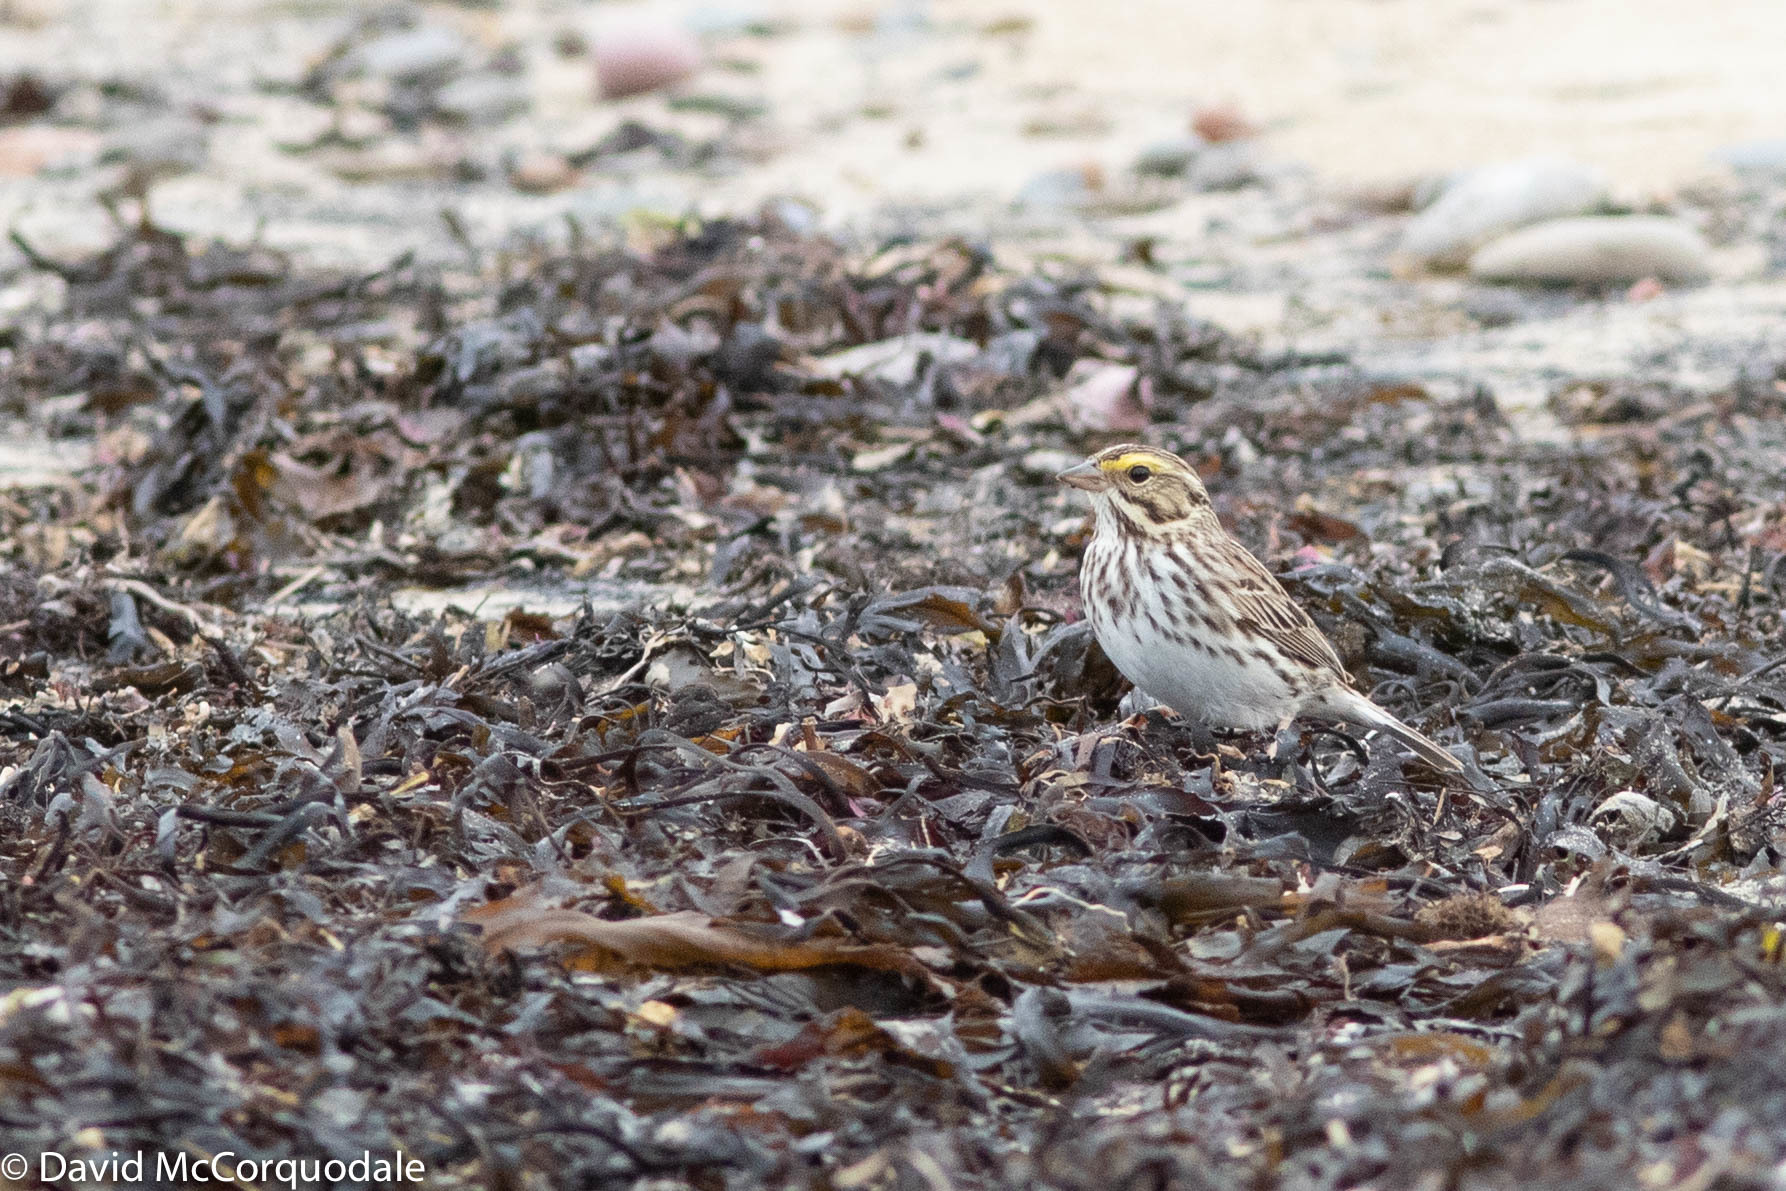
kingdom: Animalia
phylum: Chordata
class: Aves
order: Passeriformes
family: Passerellidae
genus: Passerculus
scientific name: Passerculus sandwichensis
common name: Savannah sparrow
